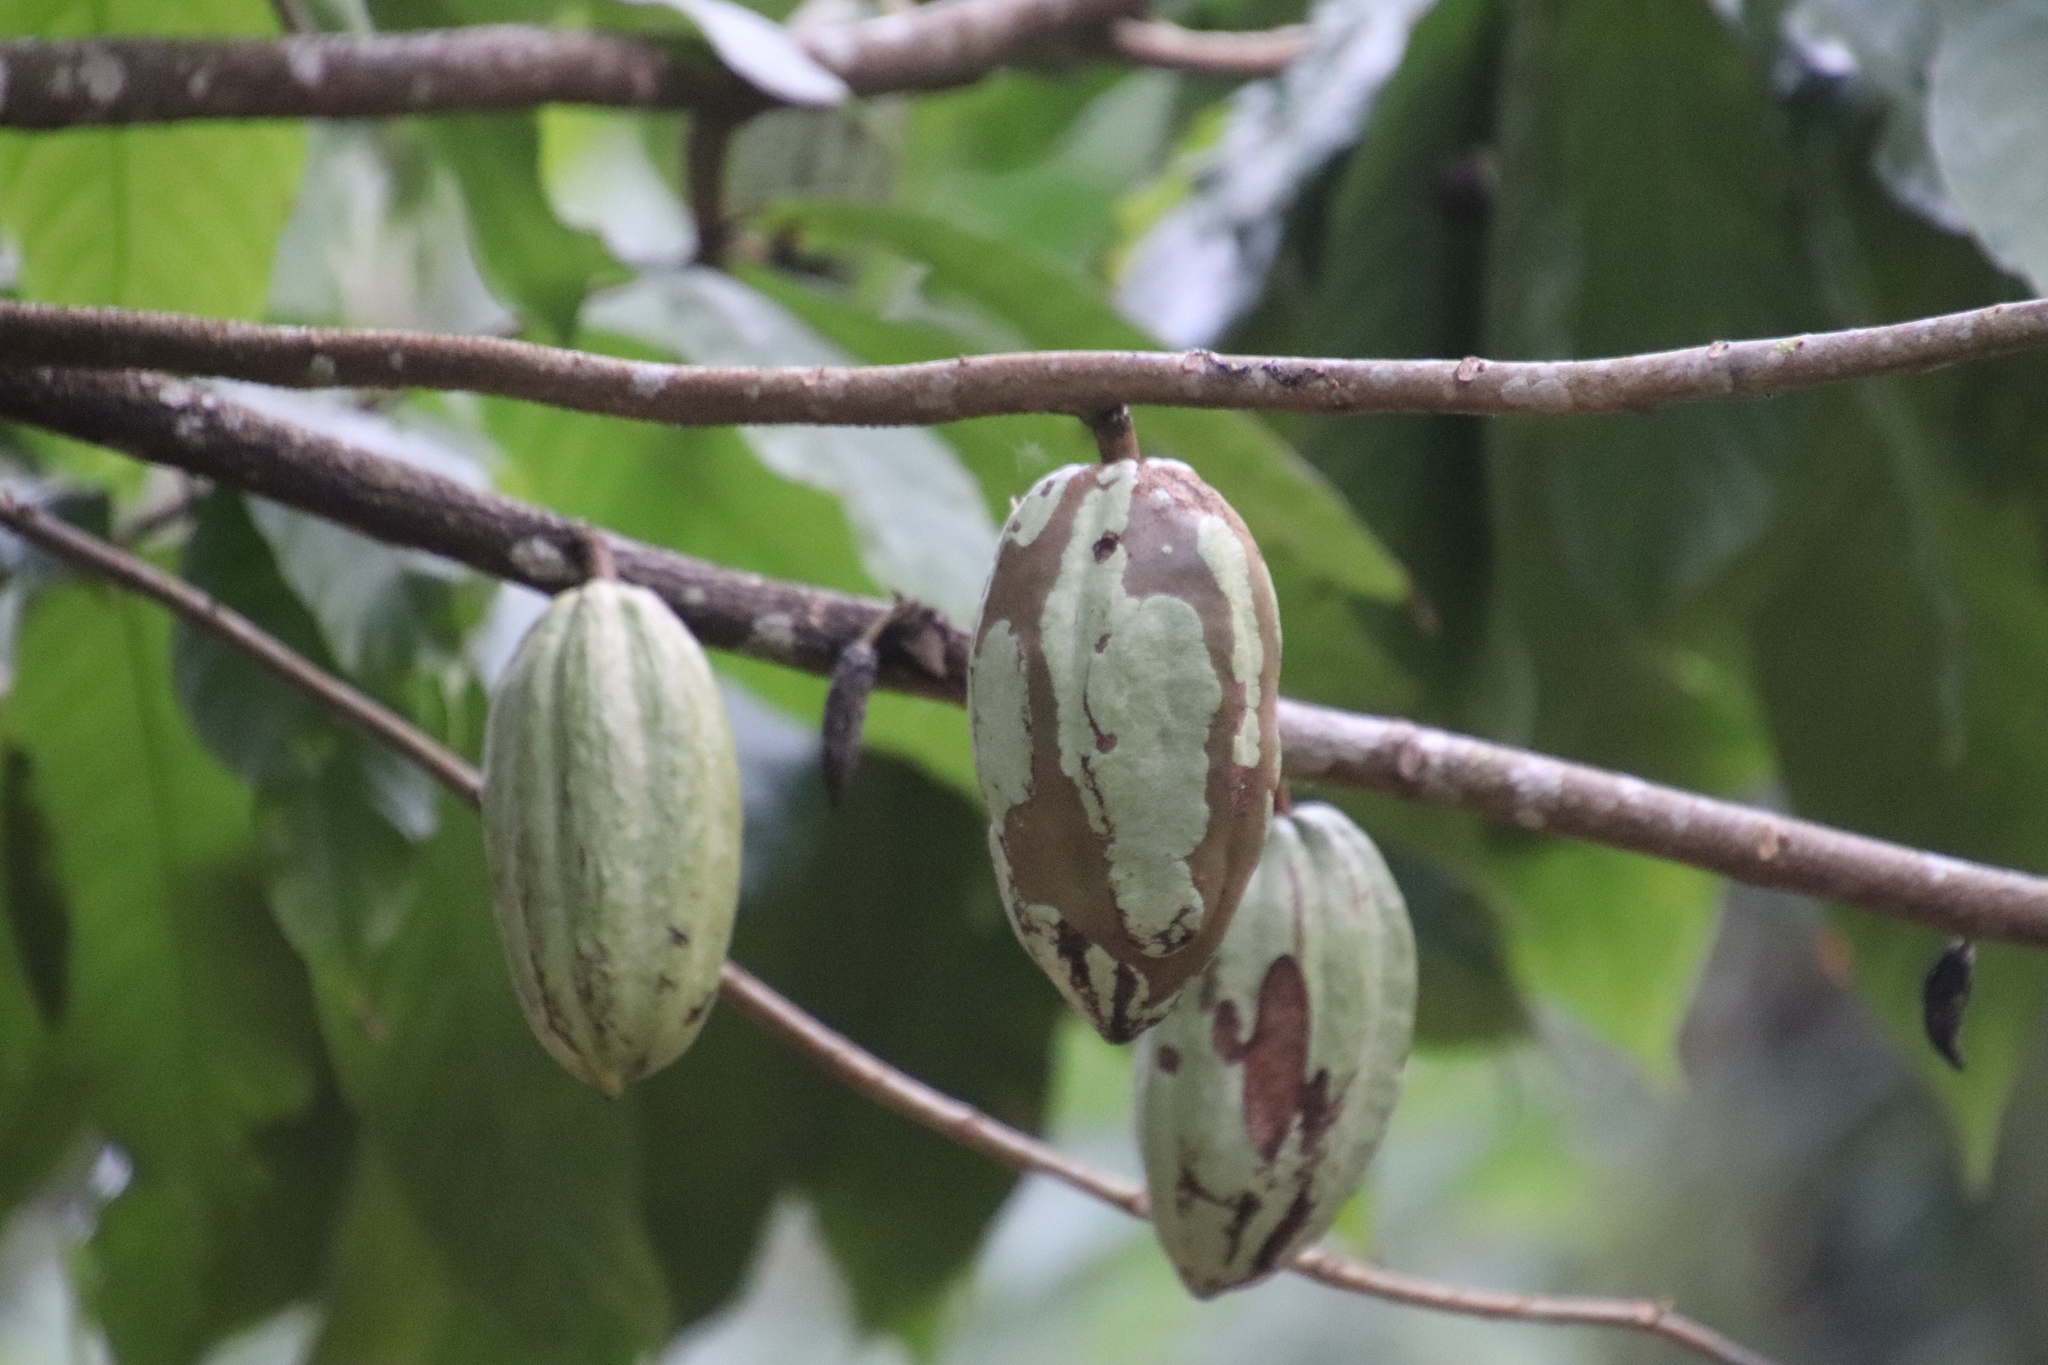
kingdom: Plantae
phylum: Tracheophyta
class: Magnoliopsida
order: Malvales
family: Malvaceae
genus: Theobroma
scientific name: Theobroma cacao
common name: Cocoa
